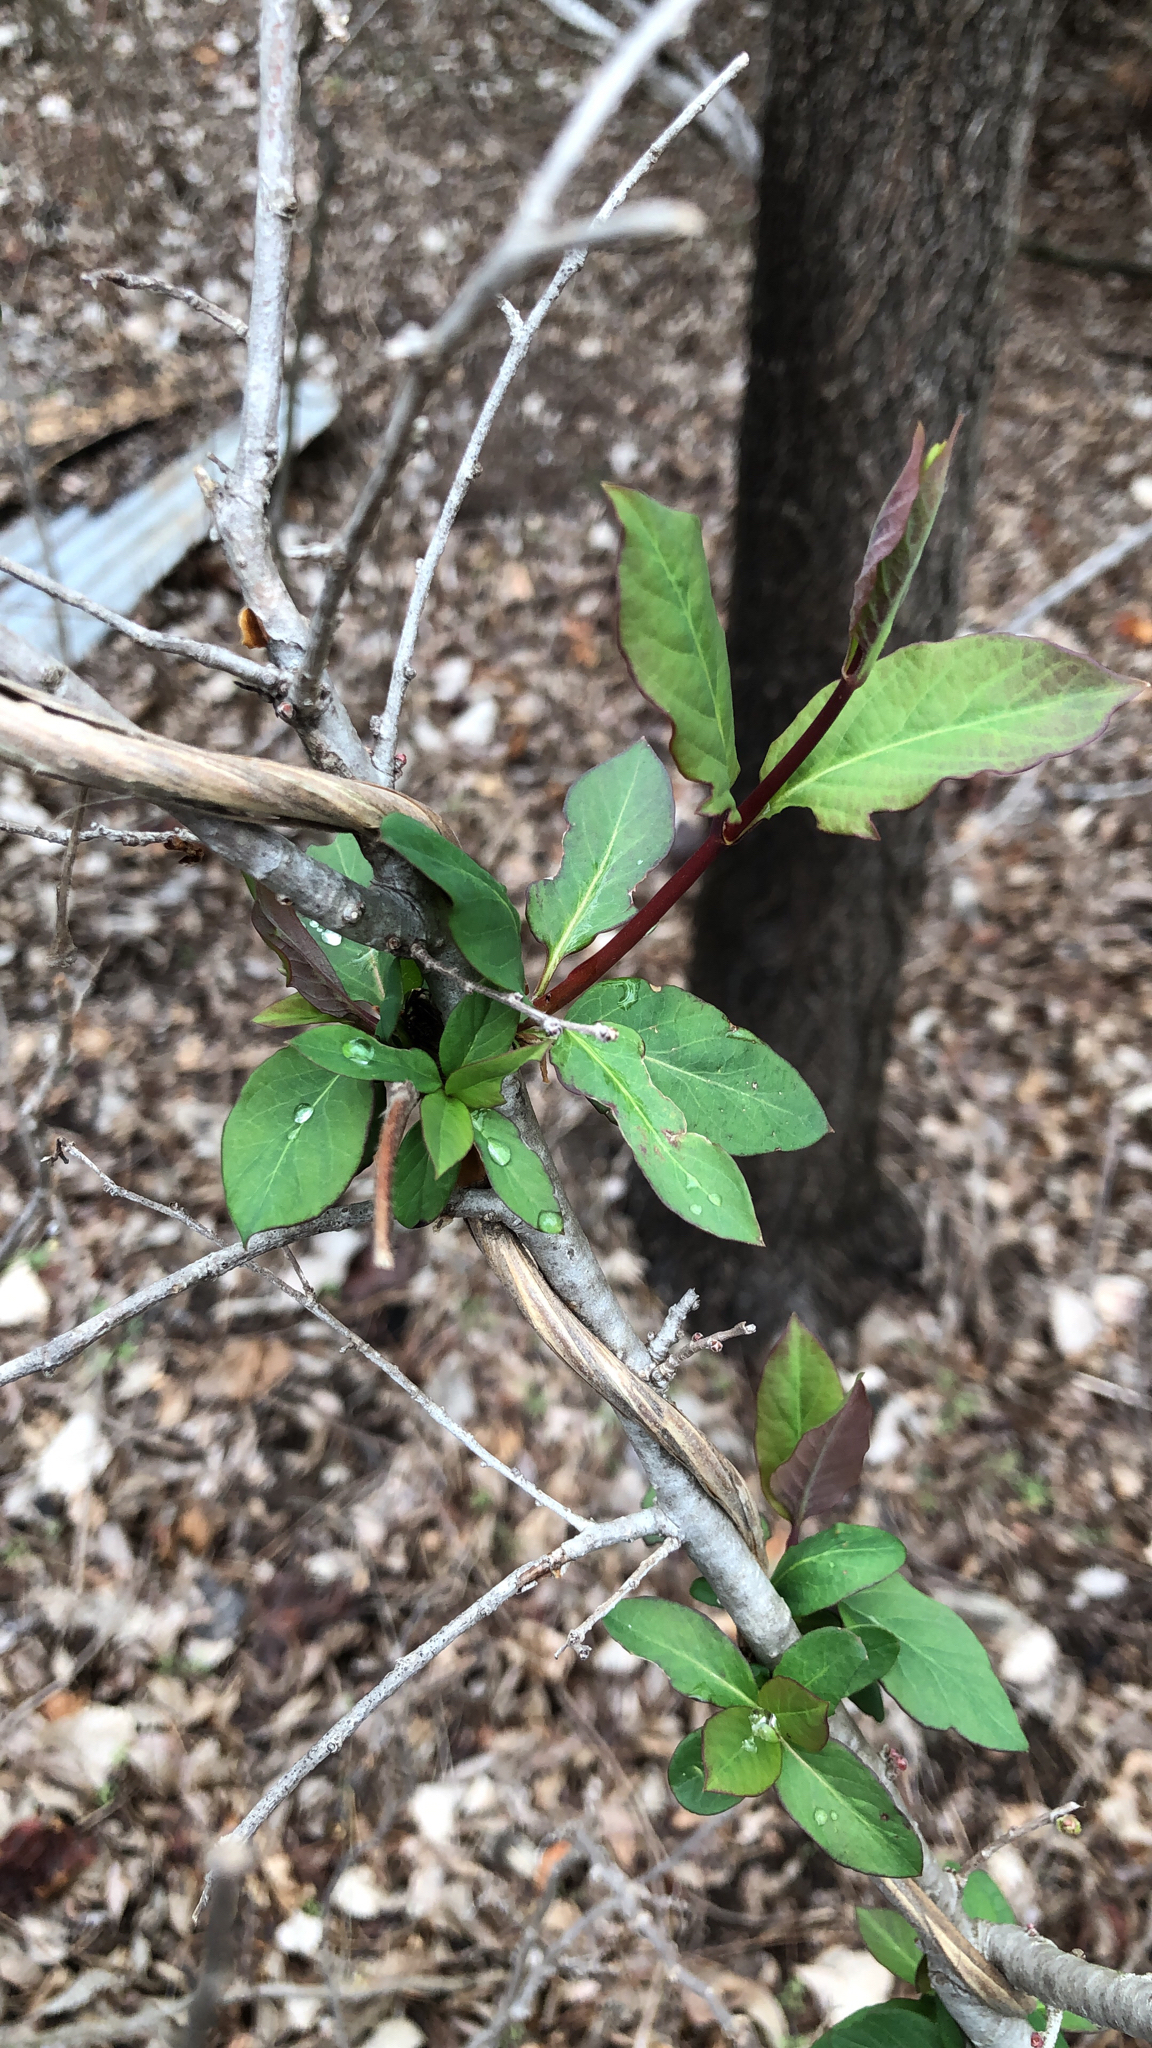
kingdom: Plantae
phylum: Tracheophyta
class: Magnoliopsida
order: Dipsacales
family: Caprifoliaceae
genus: Lonicera
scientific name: Lonicera japonica
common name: Japanese honeysuckle
